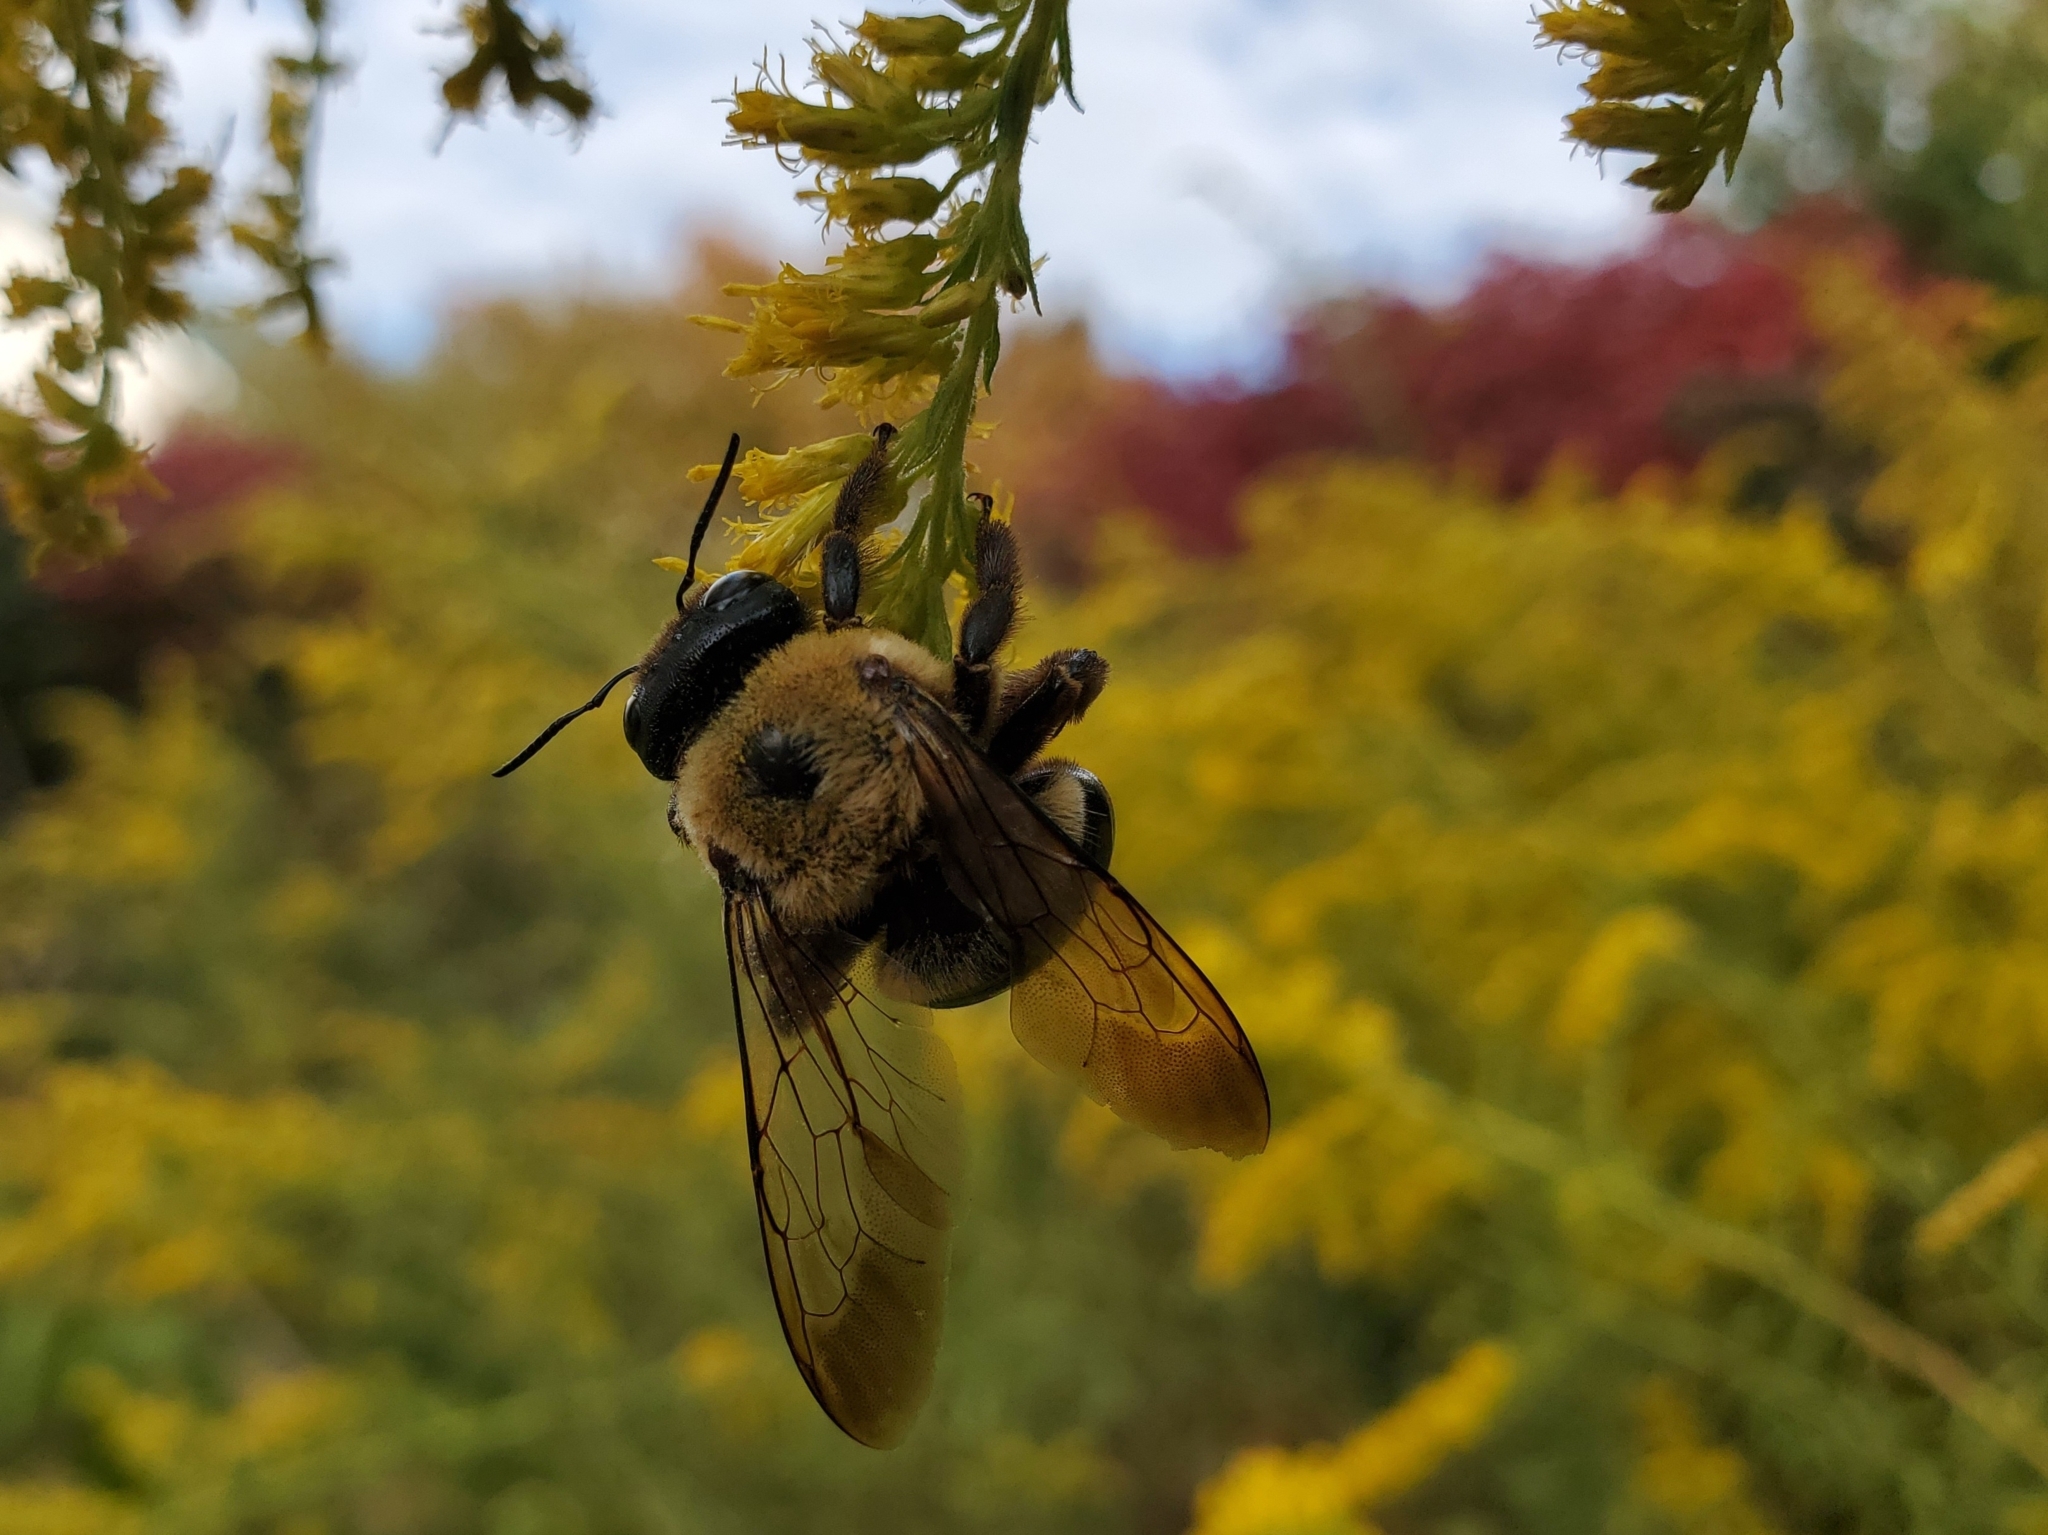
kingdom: Animalia
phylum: Arthropoda
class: Insecta
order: Hymenoptera
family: Apidae
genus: Xylocopa
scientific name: Xylocopa virginica
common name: Carpenter bee
